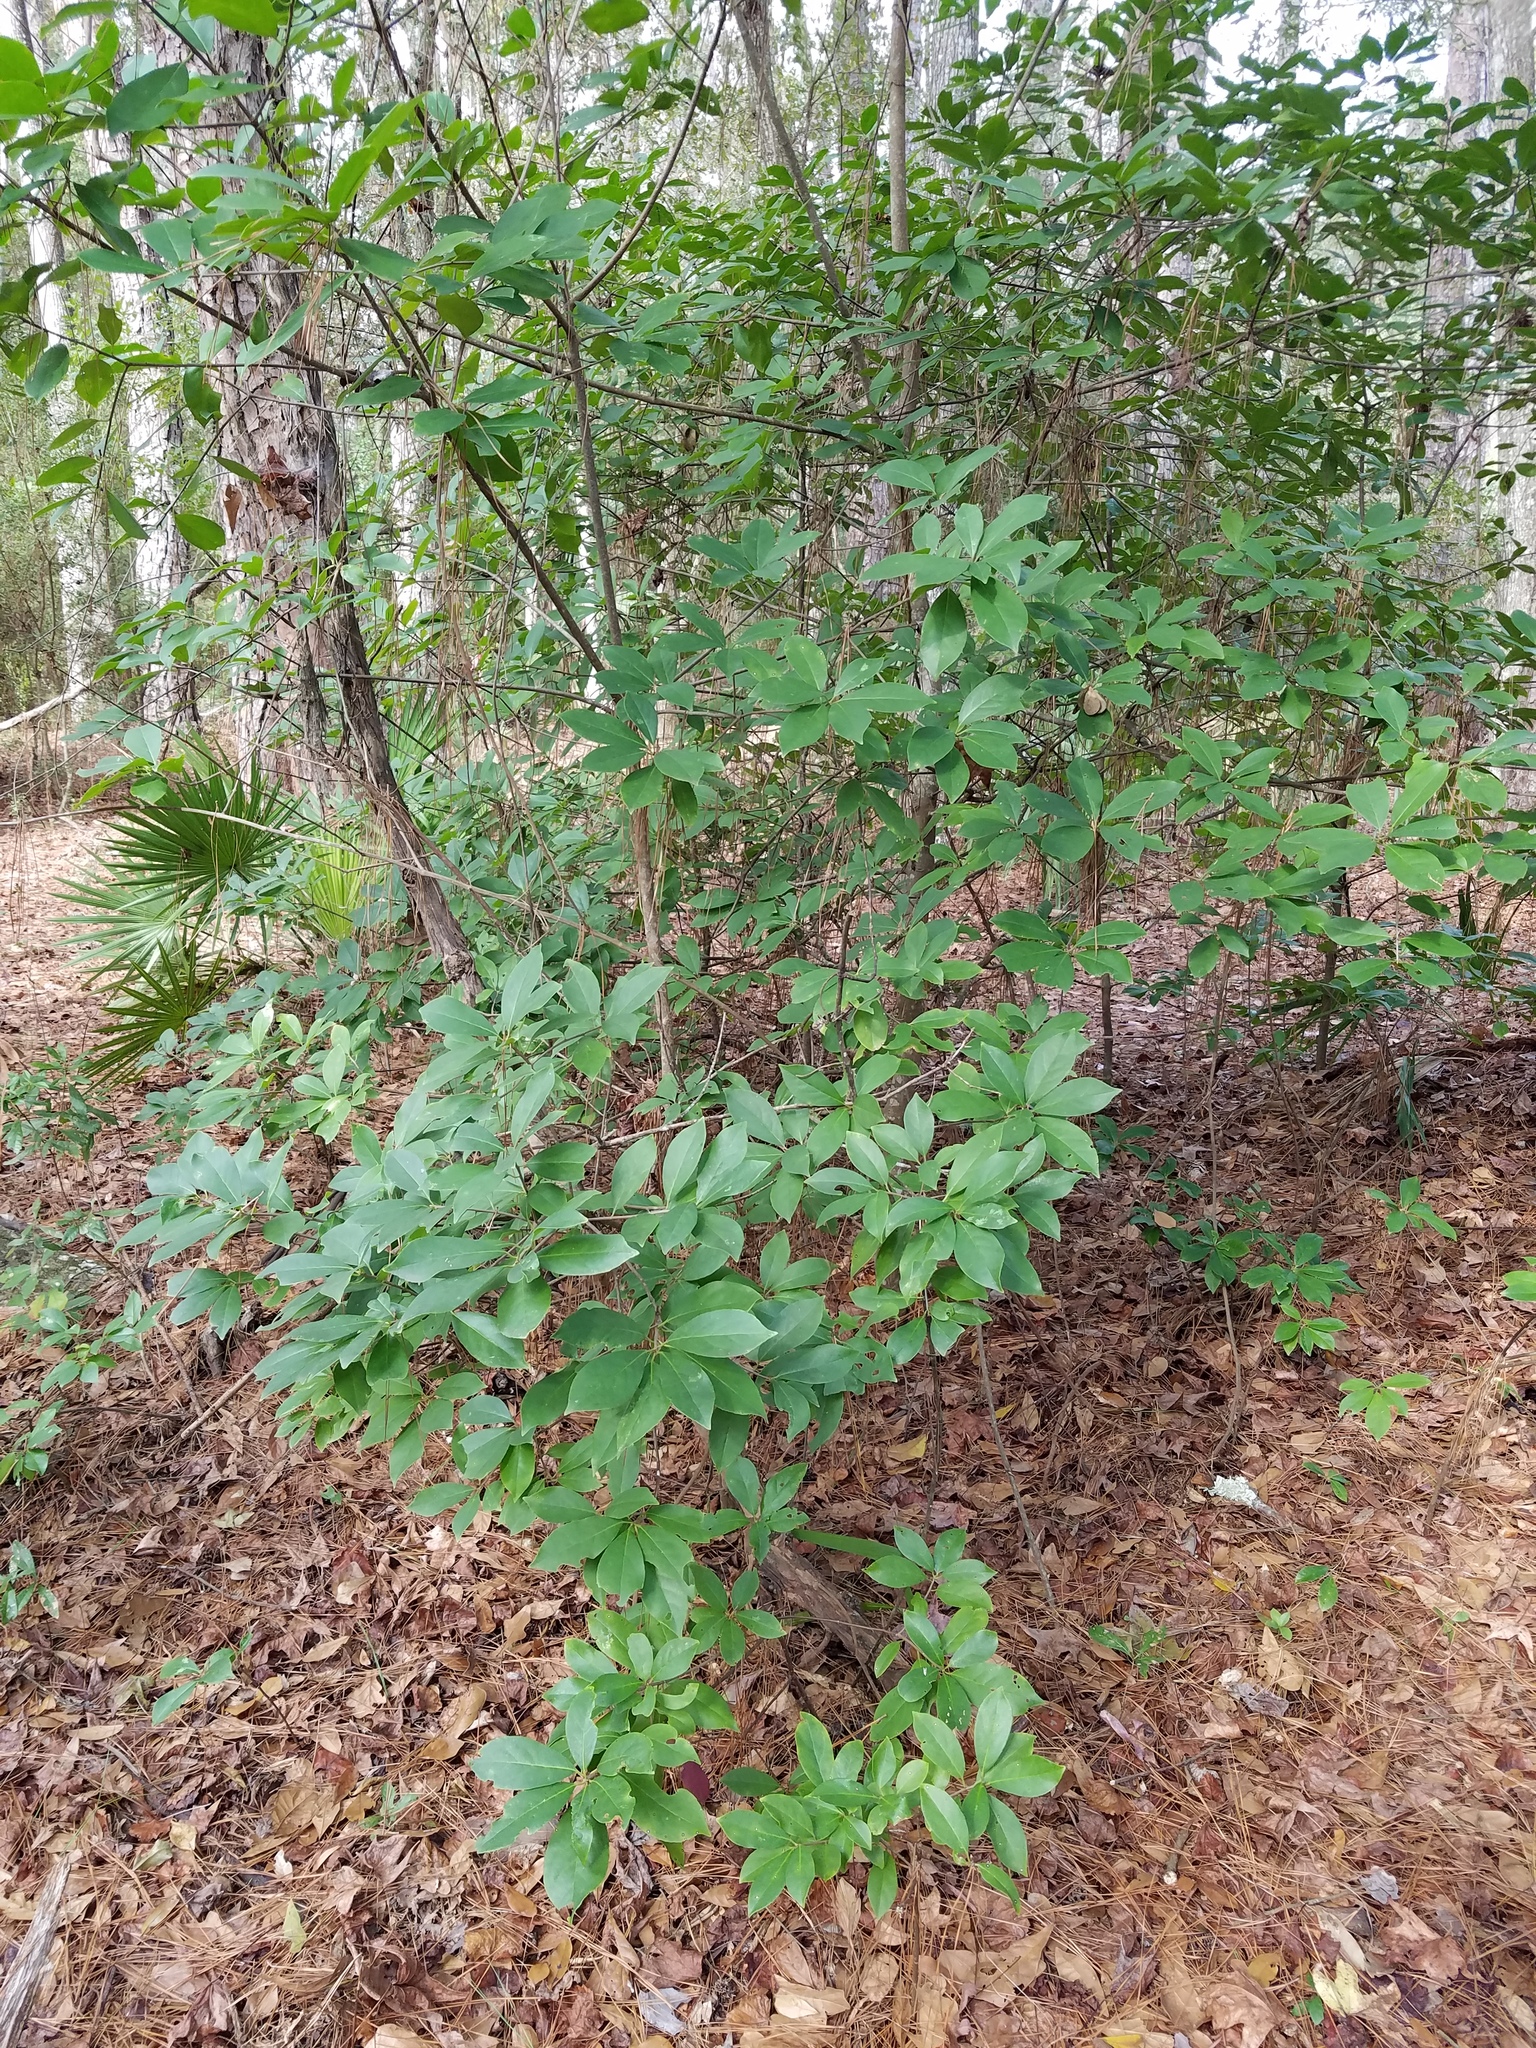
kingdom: Plantae
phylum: Tracheophyta
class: Magnoliopsida
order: Ericales
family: Symplocaceae
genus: Symplocos
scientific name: Symplocos tinctoria
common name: Horse-sugar
